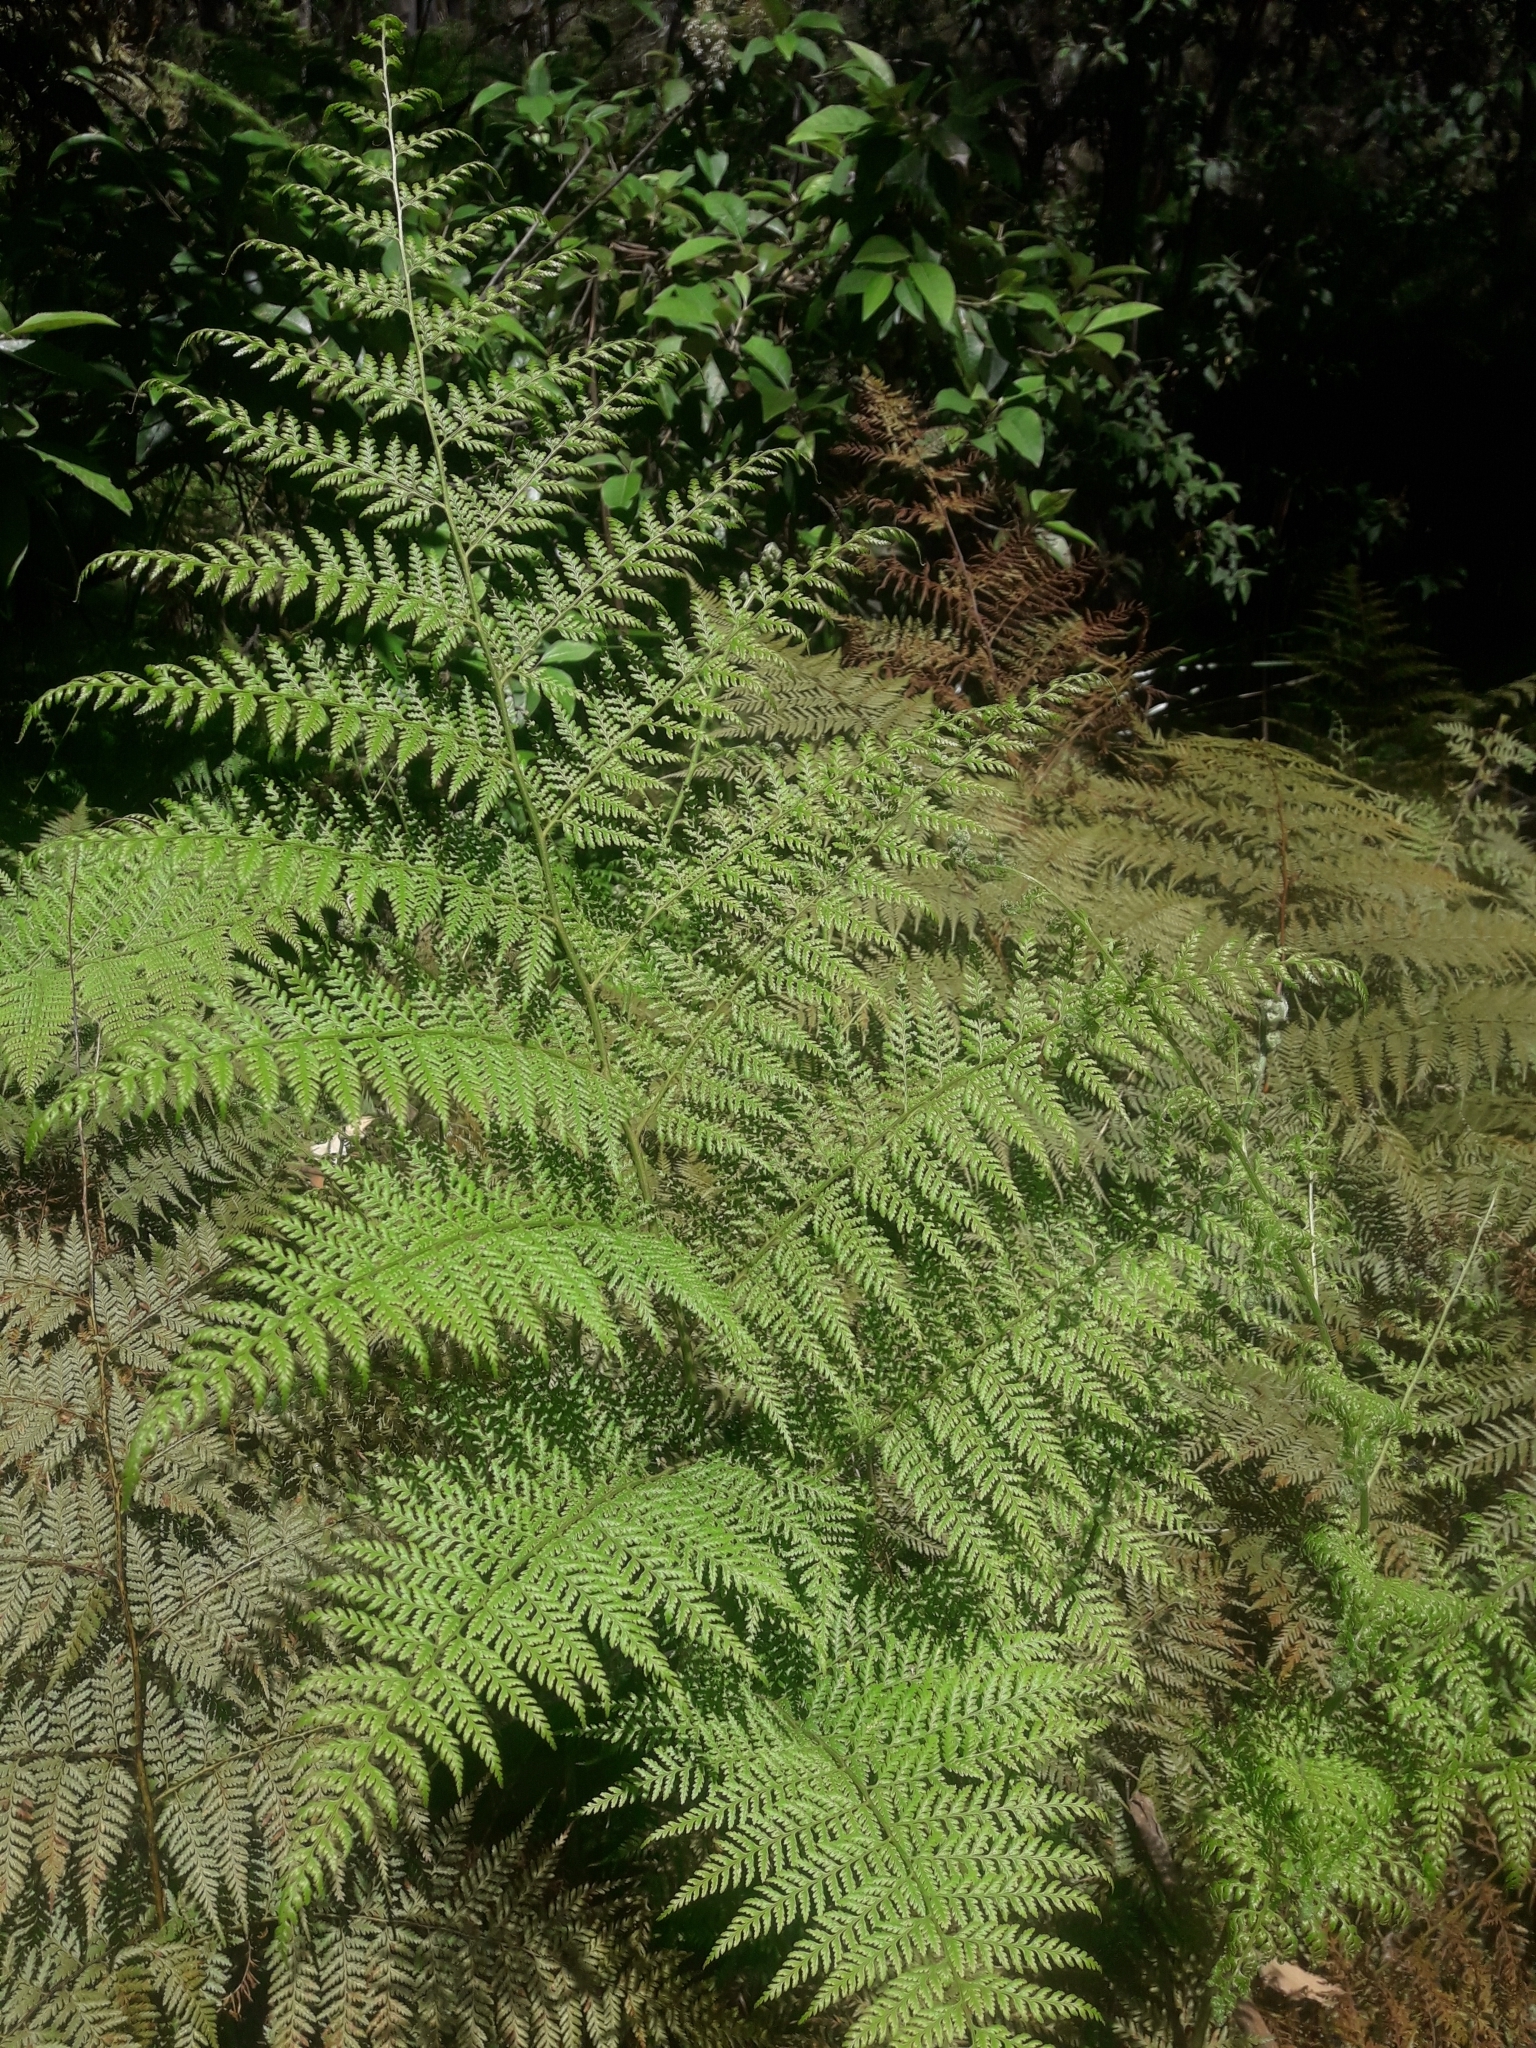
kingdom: Plantae
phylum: Tracheophyta
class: Polypodiopsida
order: Cyatheales
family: Dicksoniaceae
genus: Calochlaena
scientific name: Calochlaena dubia
